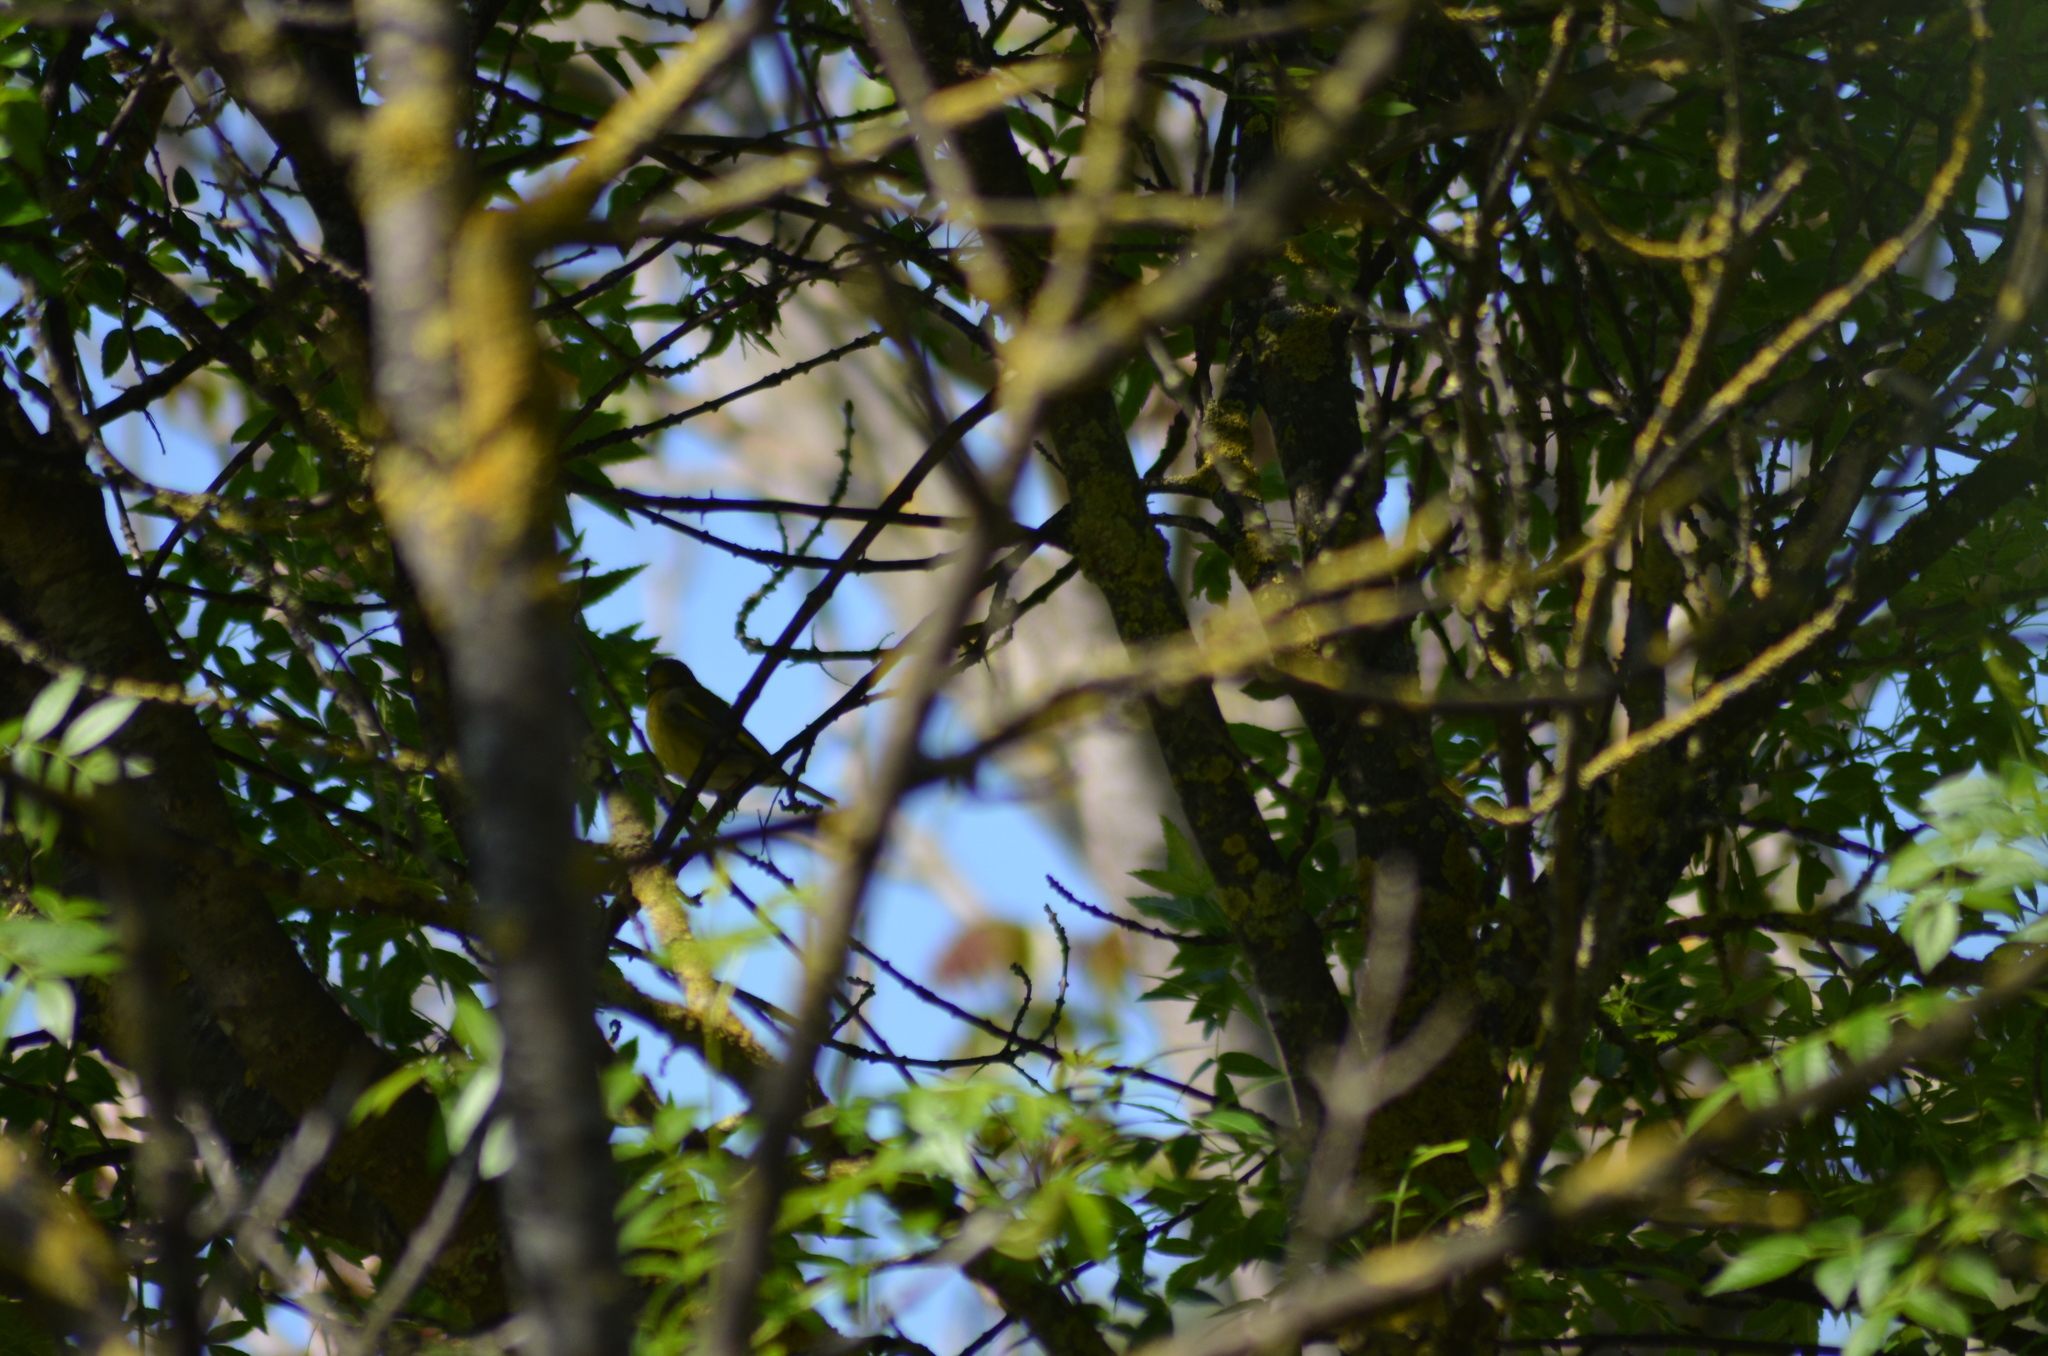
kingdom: Plantae
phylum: Tracheophyta
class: Liliopsida
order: Poales
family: Poaceae
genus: Chloris
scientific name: Chloris chloris
